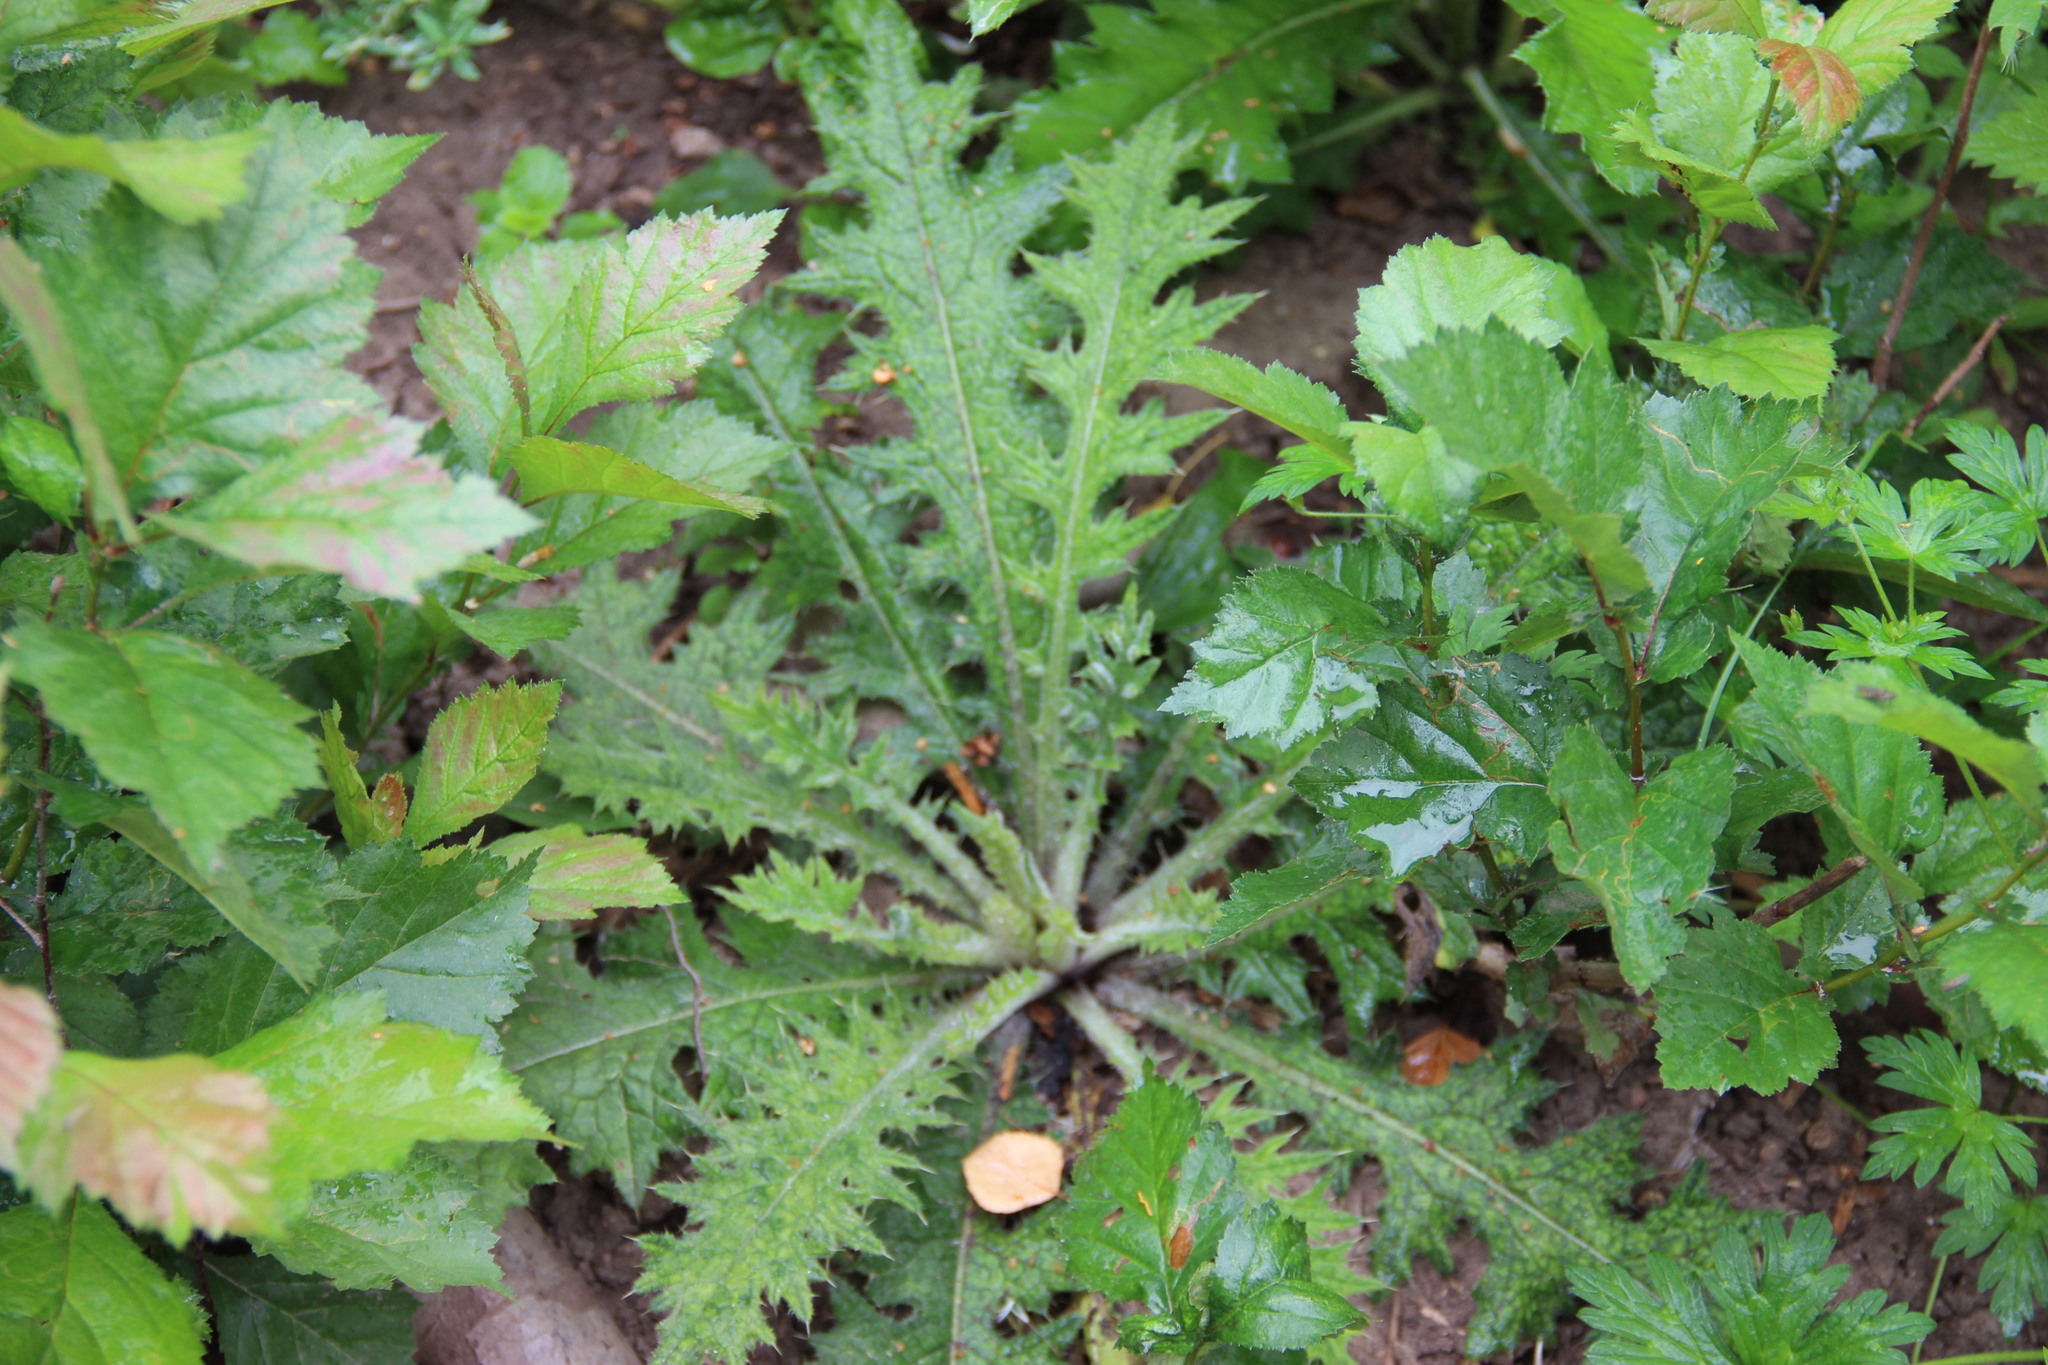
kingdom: Plantae
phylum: Tracheophyta
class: Magnoliopsida
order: Asterales
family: Asteraceae
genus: Cirsium
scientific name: Cirsium palustre
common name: Marsh thistle
